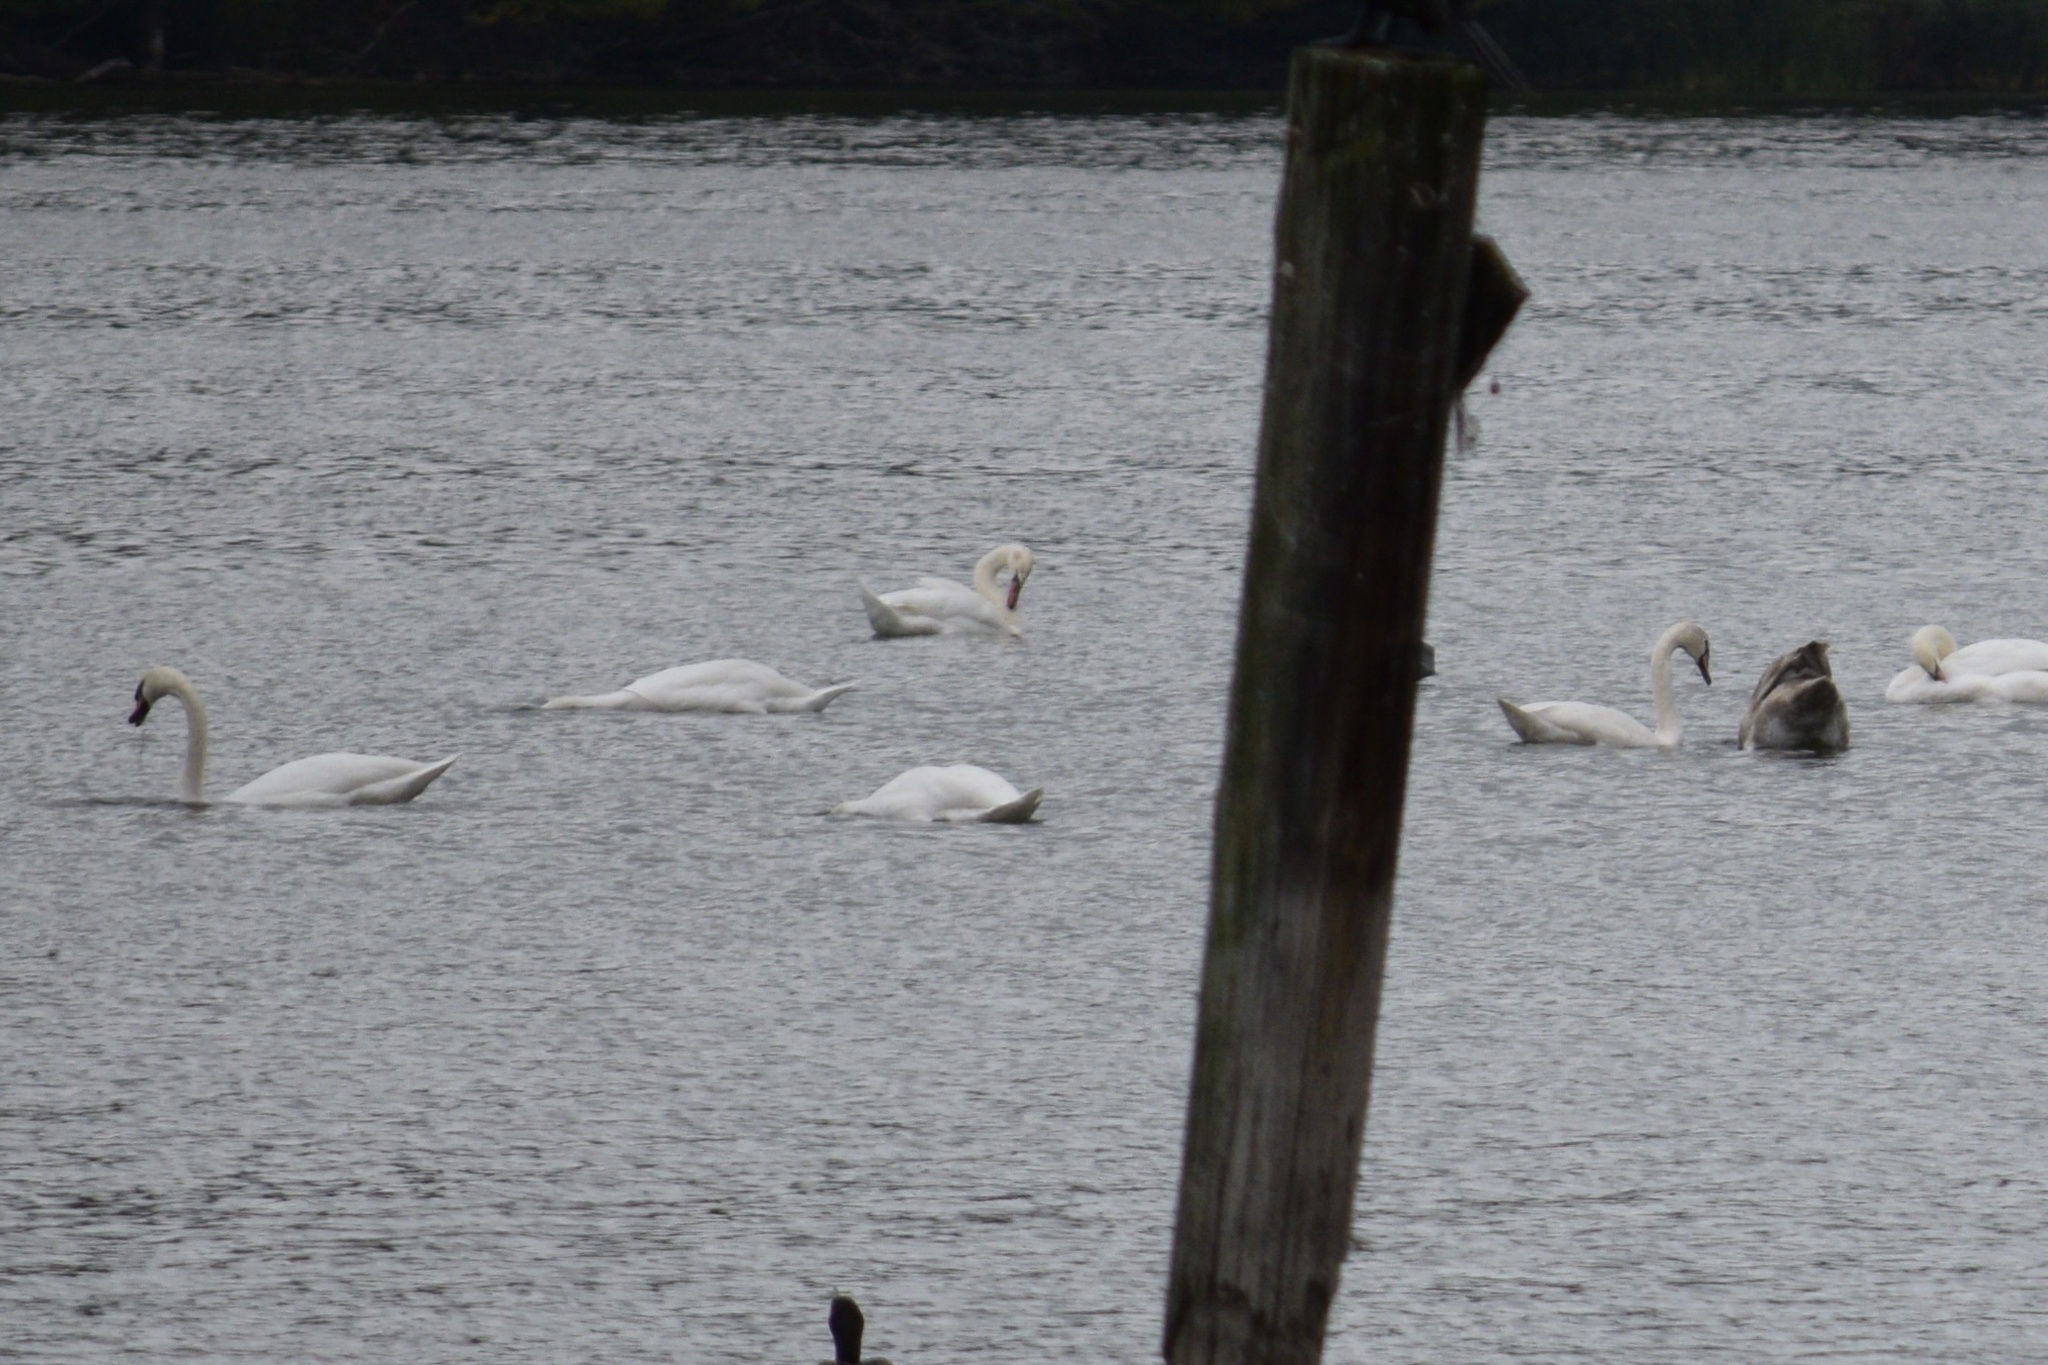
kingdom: Animalia
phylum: Chordata
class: Aves
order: Anseriformes
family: Anatidae
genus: Cygnus
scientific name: Cygnus olor
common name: Mute swan
